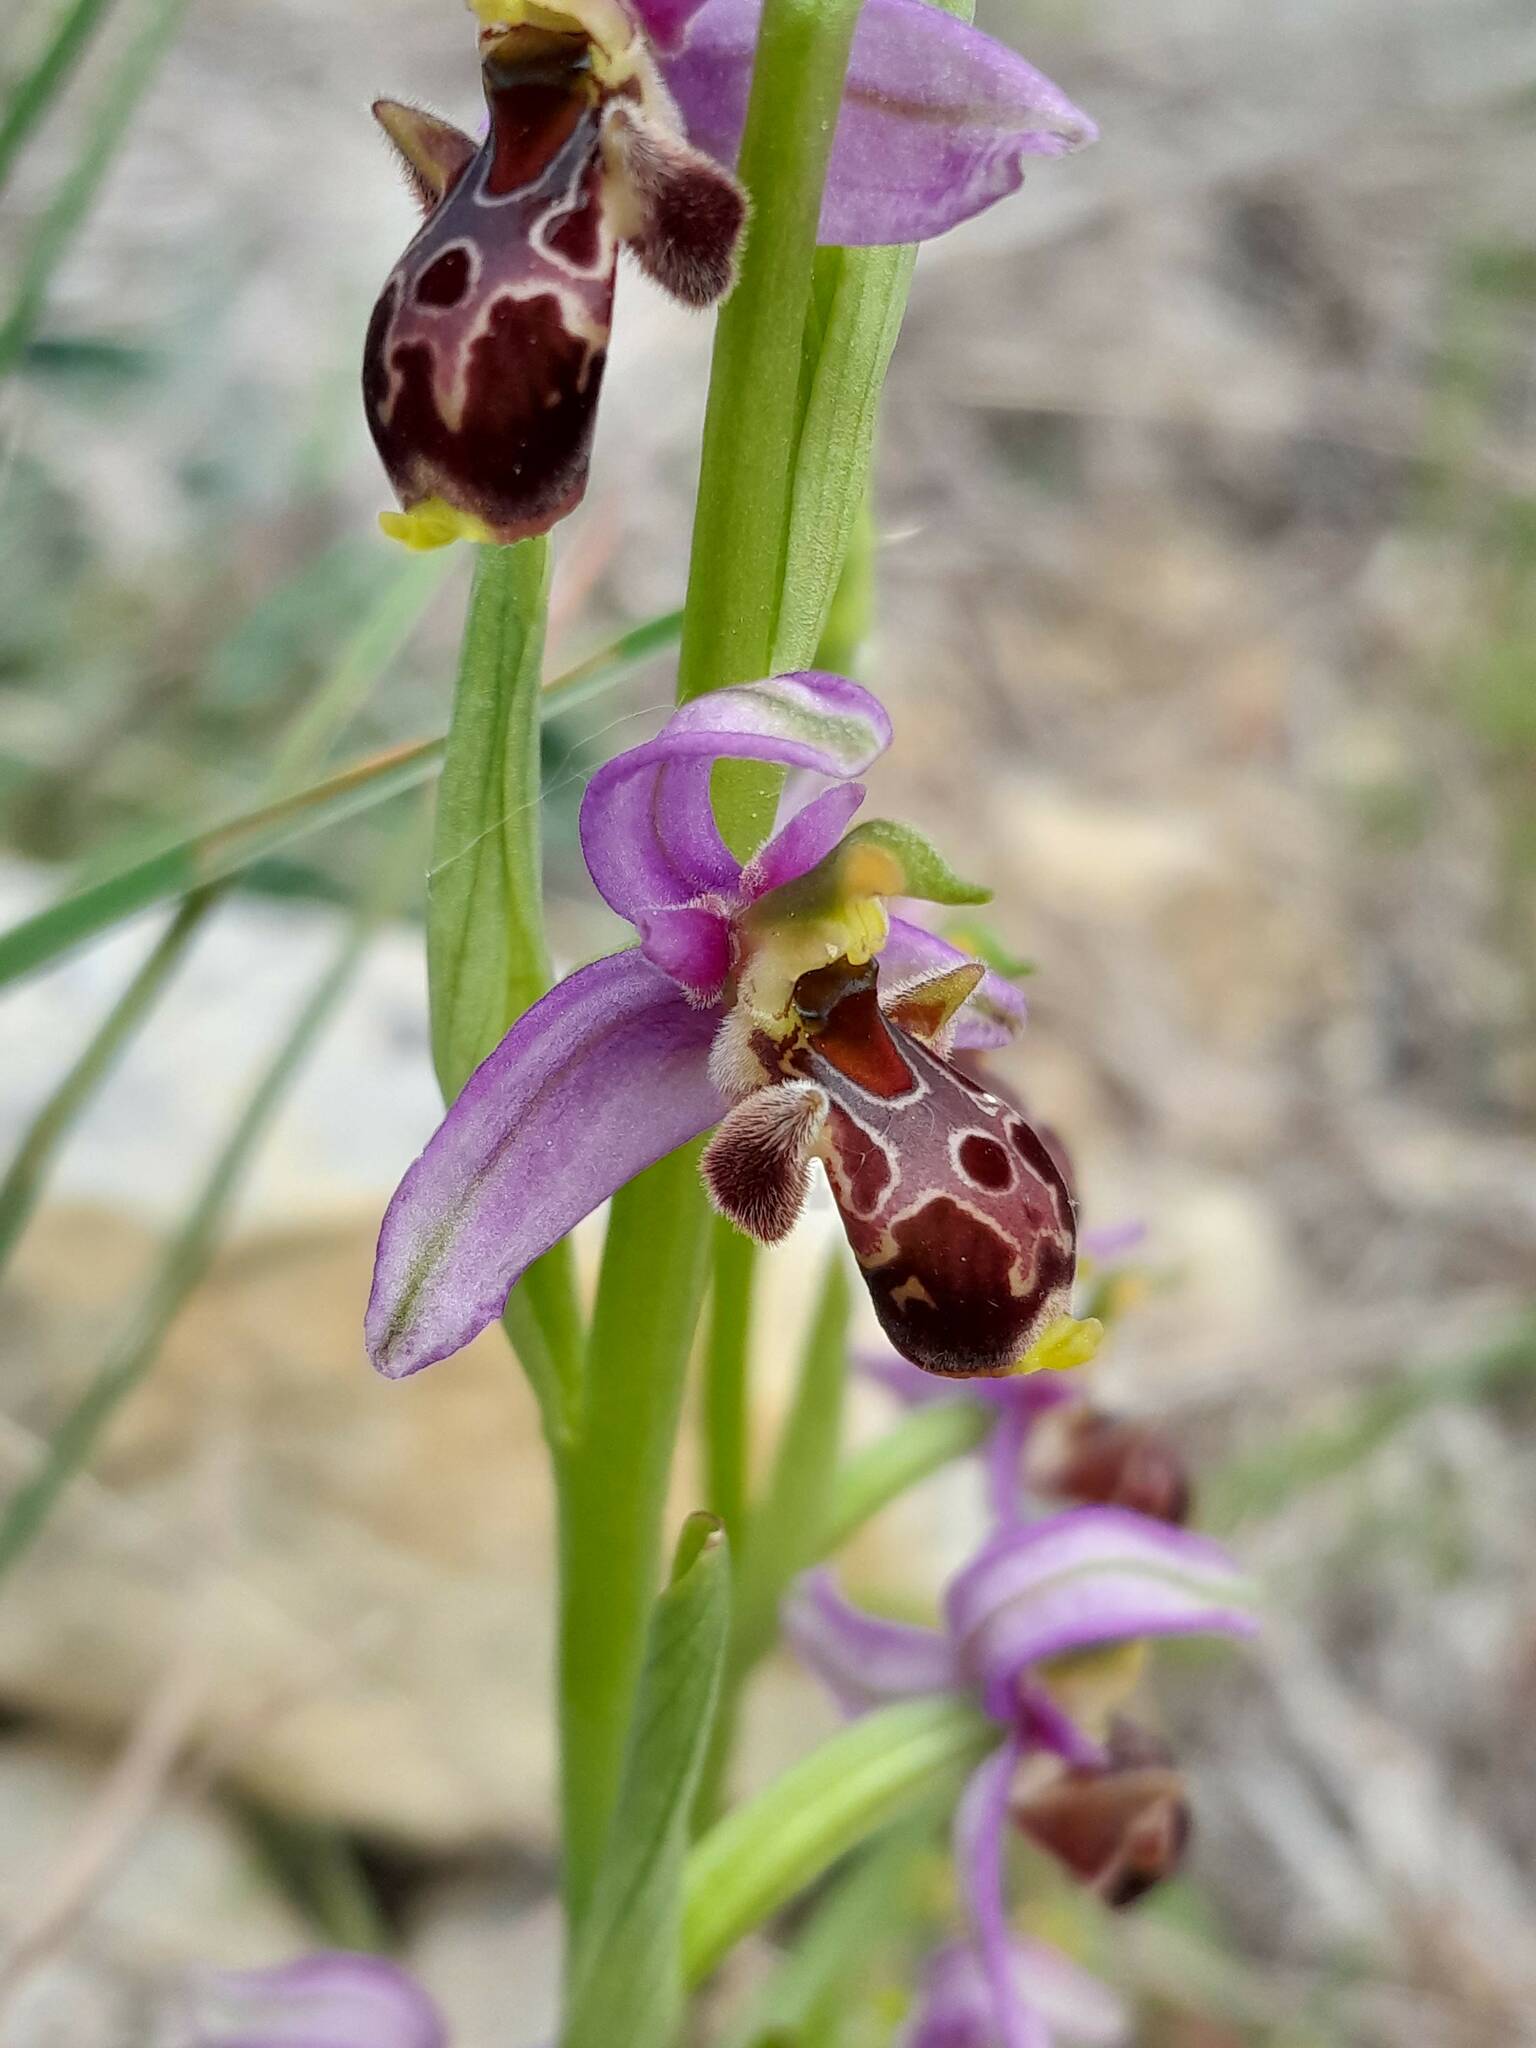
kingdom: Plantae
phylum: Tracheophyta
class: Liliopsida
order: Asparagales
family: Orchidaceae
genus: Ophrys
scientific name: Ophrys scolopax
